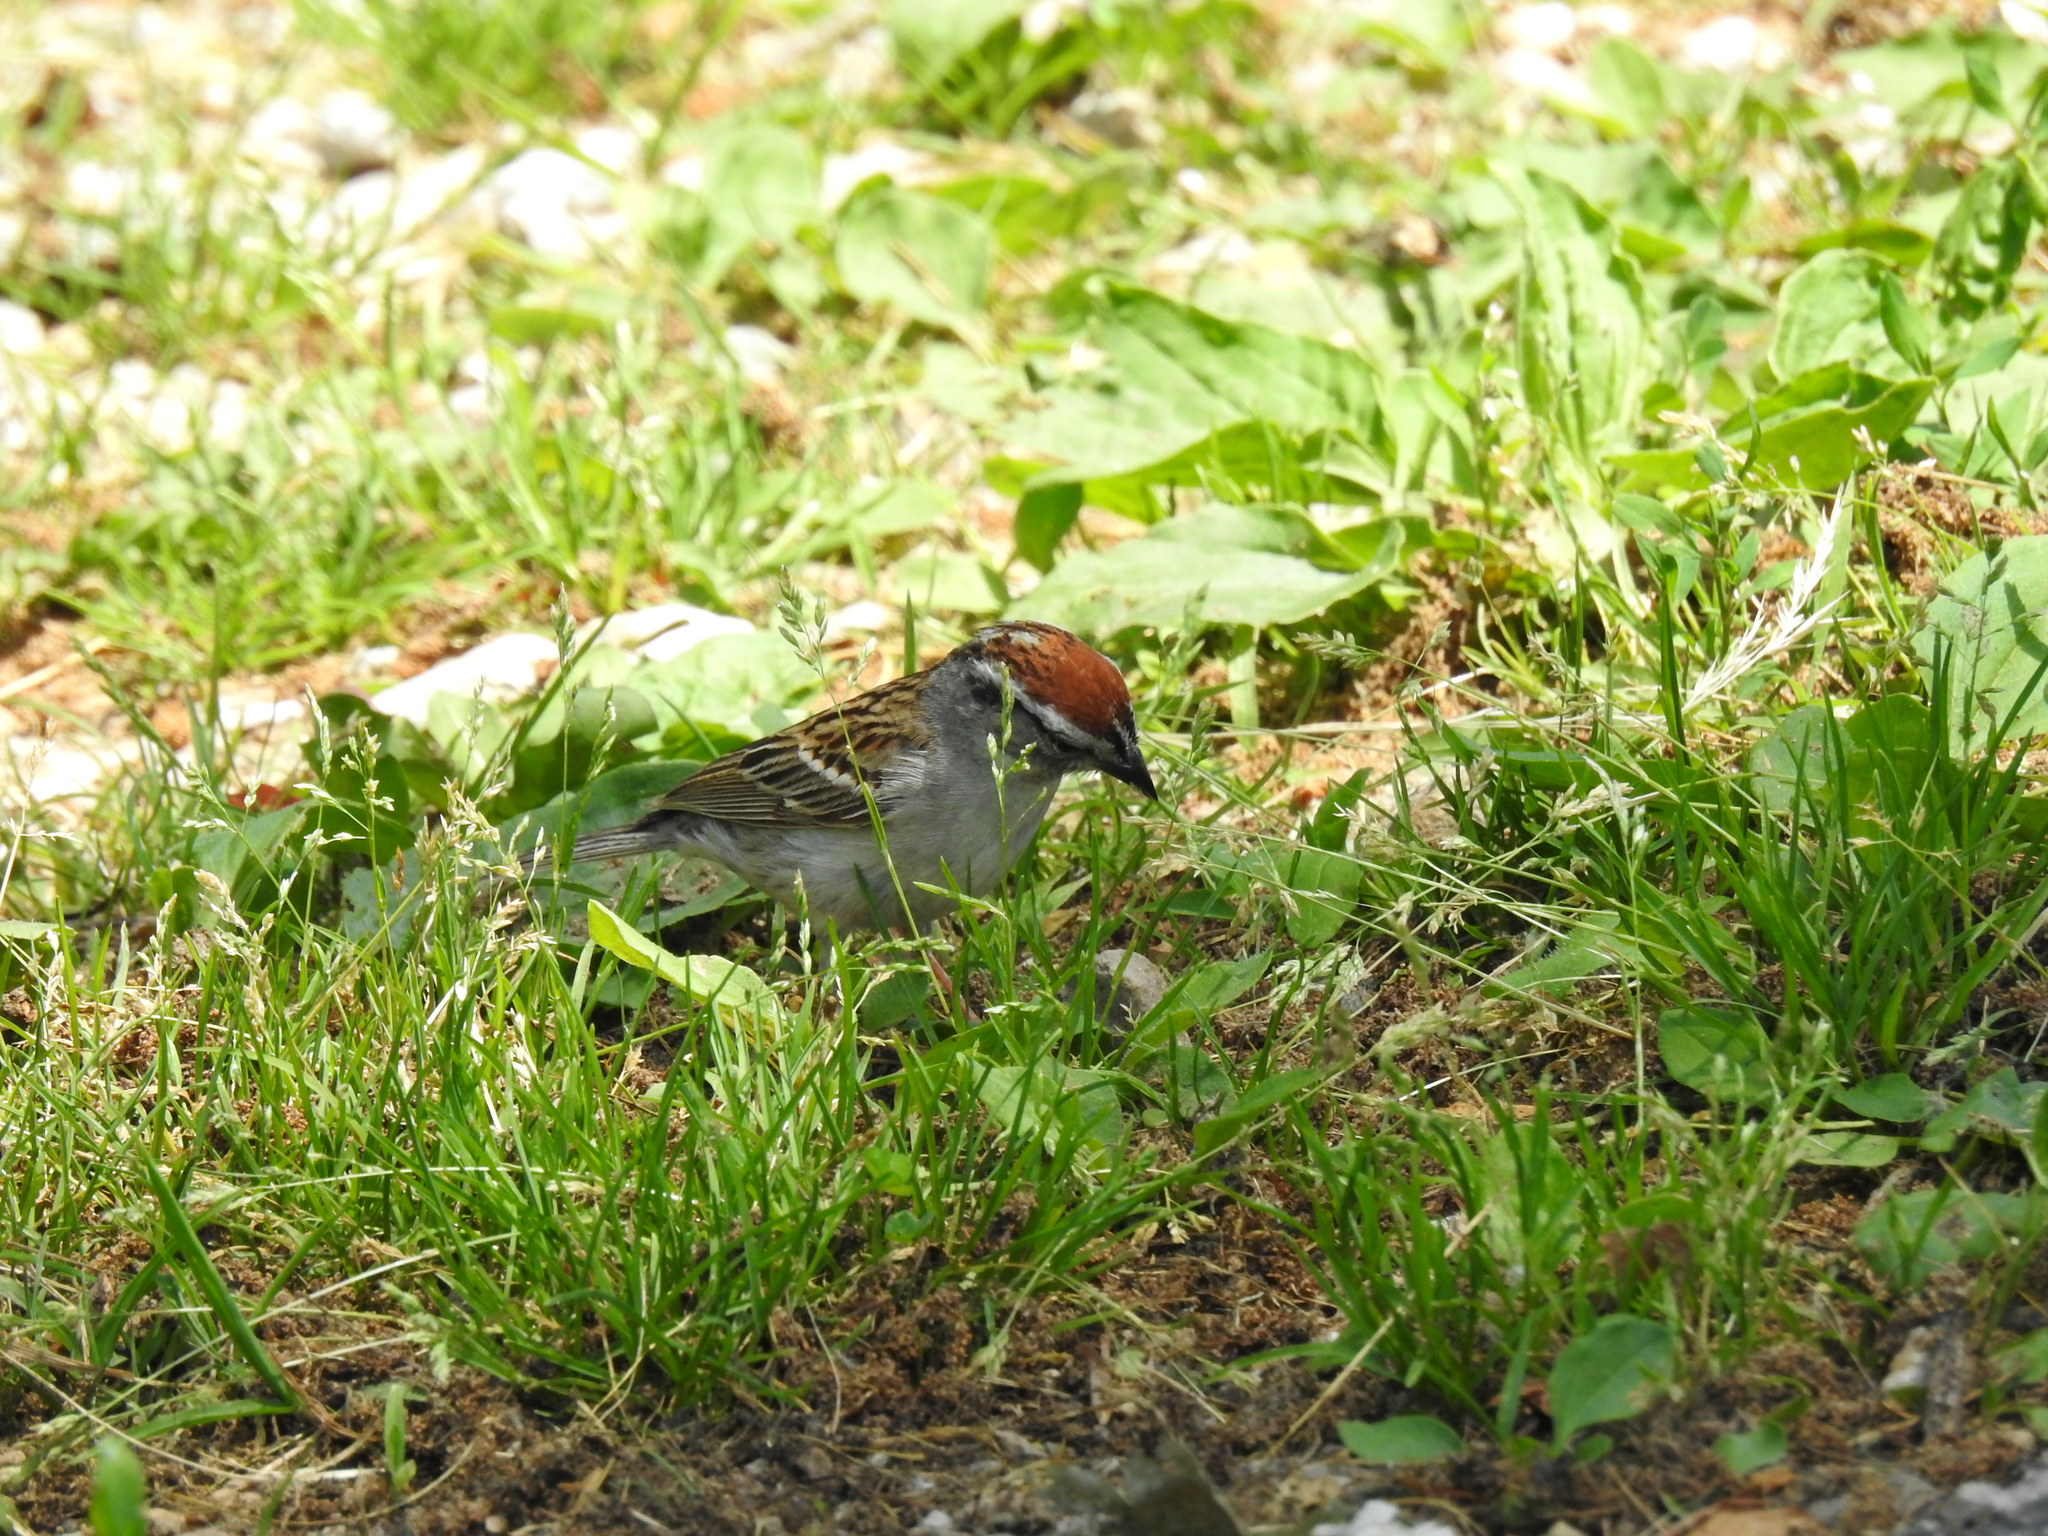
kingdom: Animalia
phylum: Chordata
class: Aves
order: Passeriformes
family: Passerellidae
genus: Spizella
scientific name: Spizella passerina
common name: Chipping sparrow
